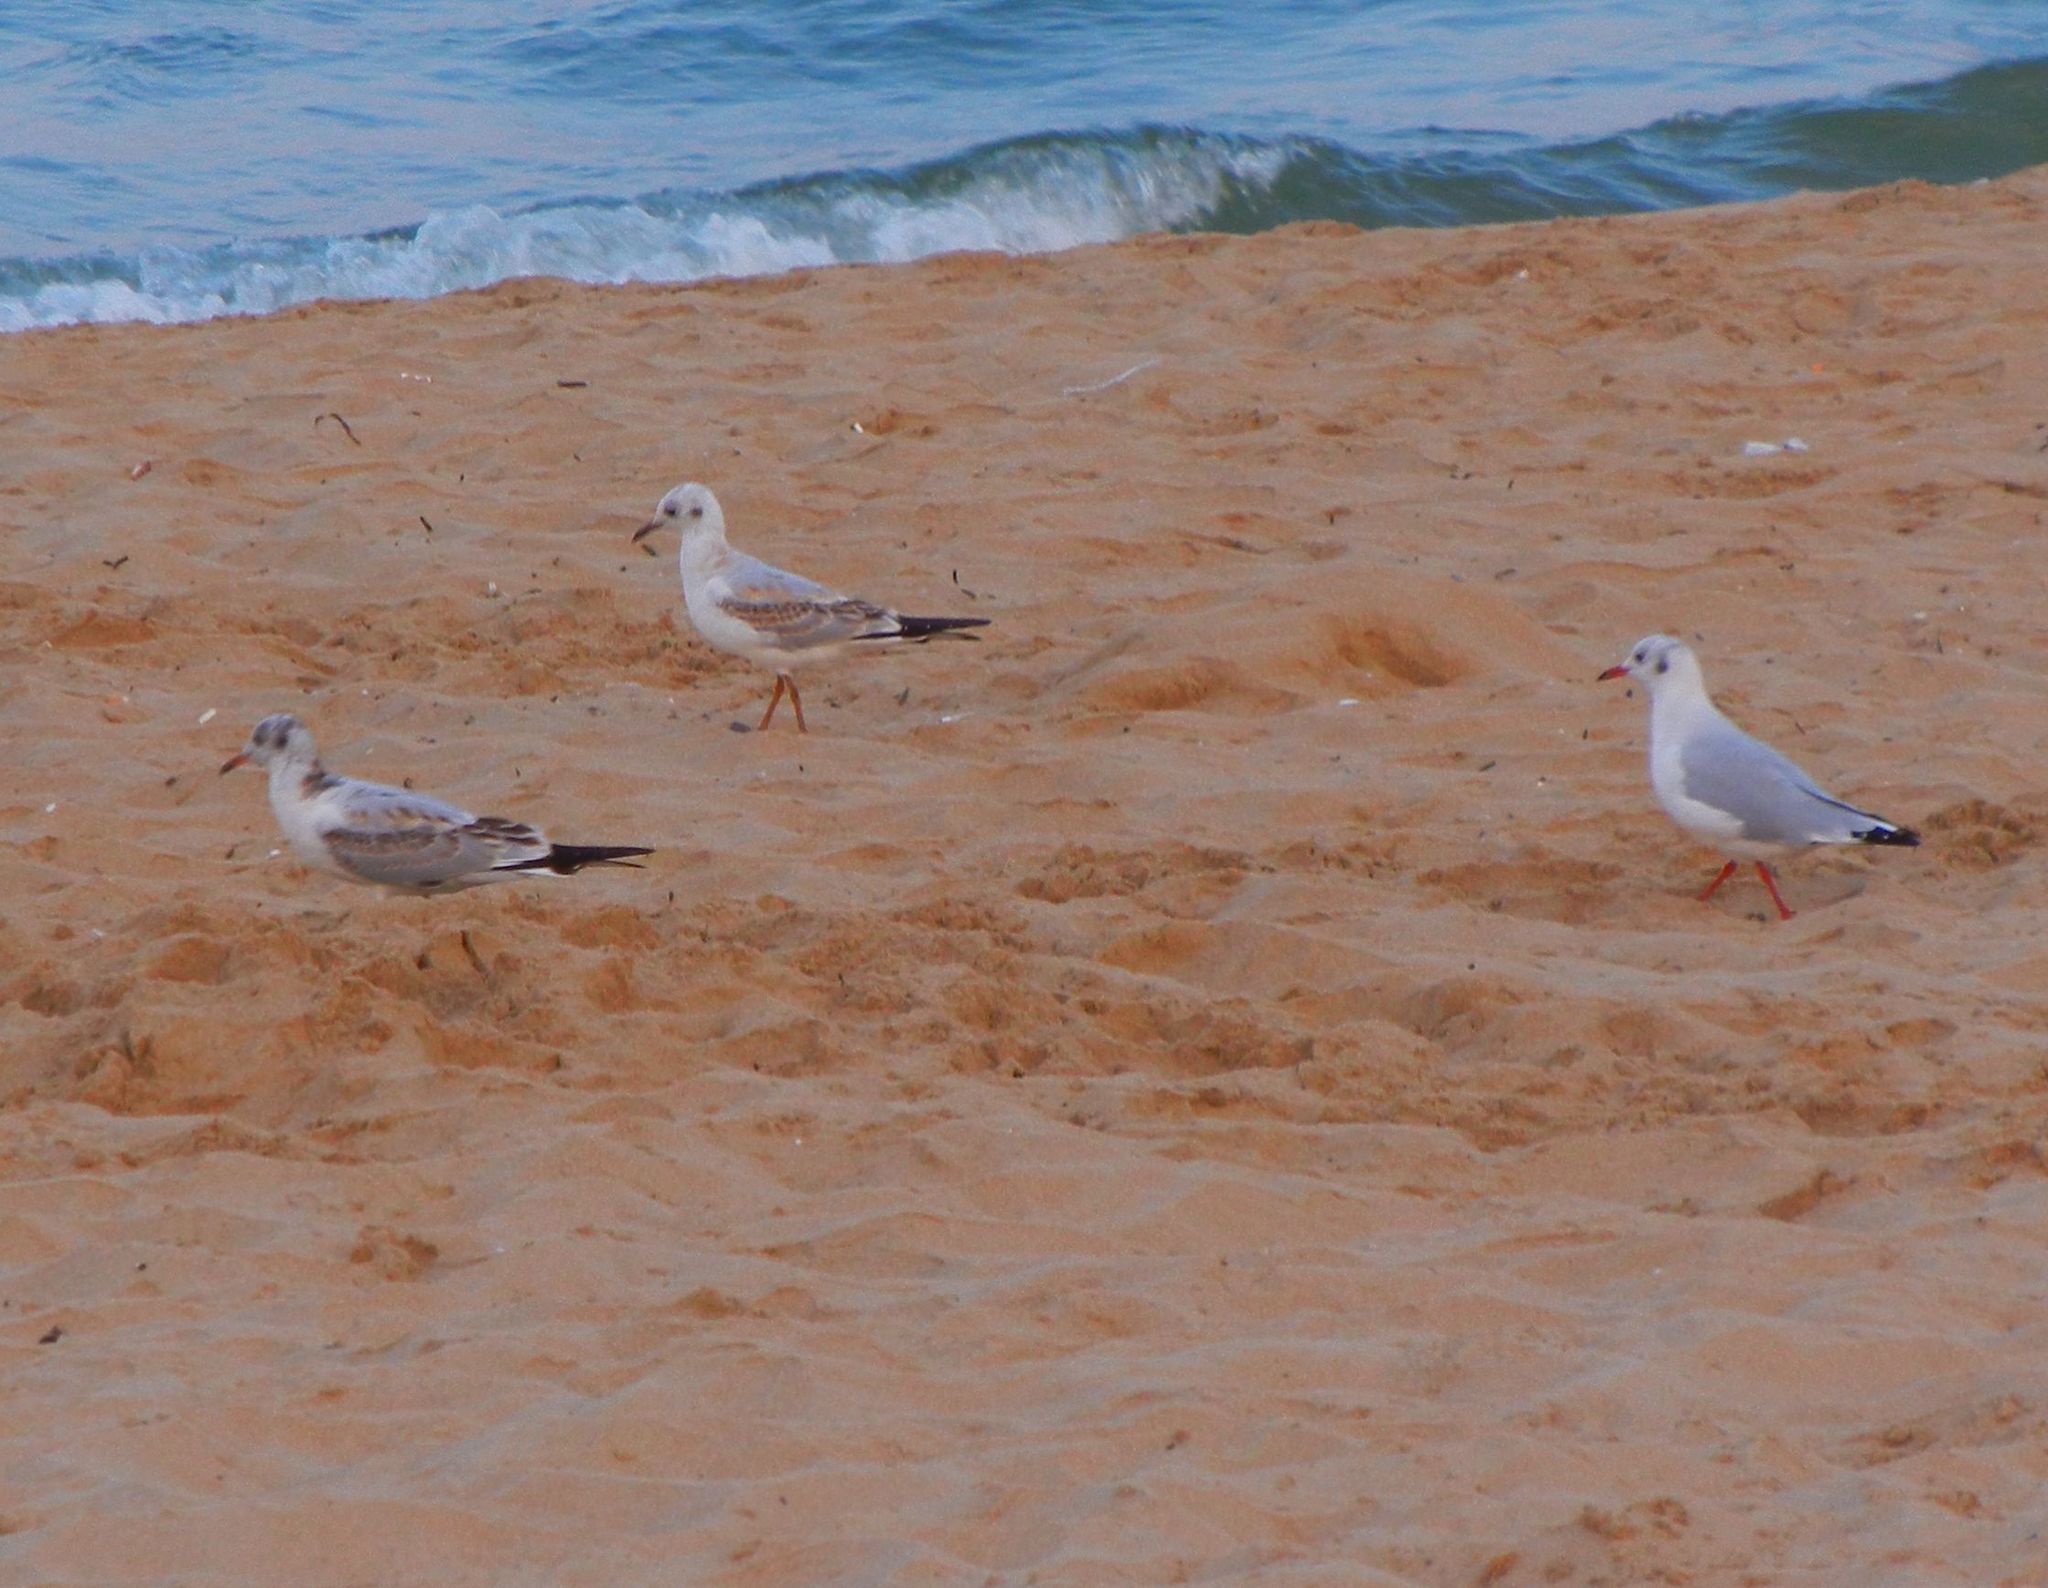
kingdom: Animalia
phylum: Chordata
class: Aves
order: Charadriiformes
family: Laridae
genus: Chroicocephalus
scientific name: Chroicocephalus ridibundus
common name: Black-headed gull
